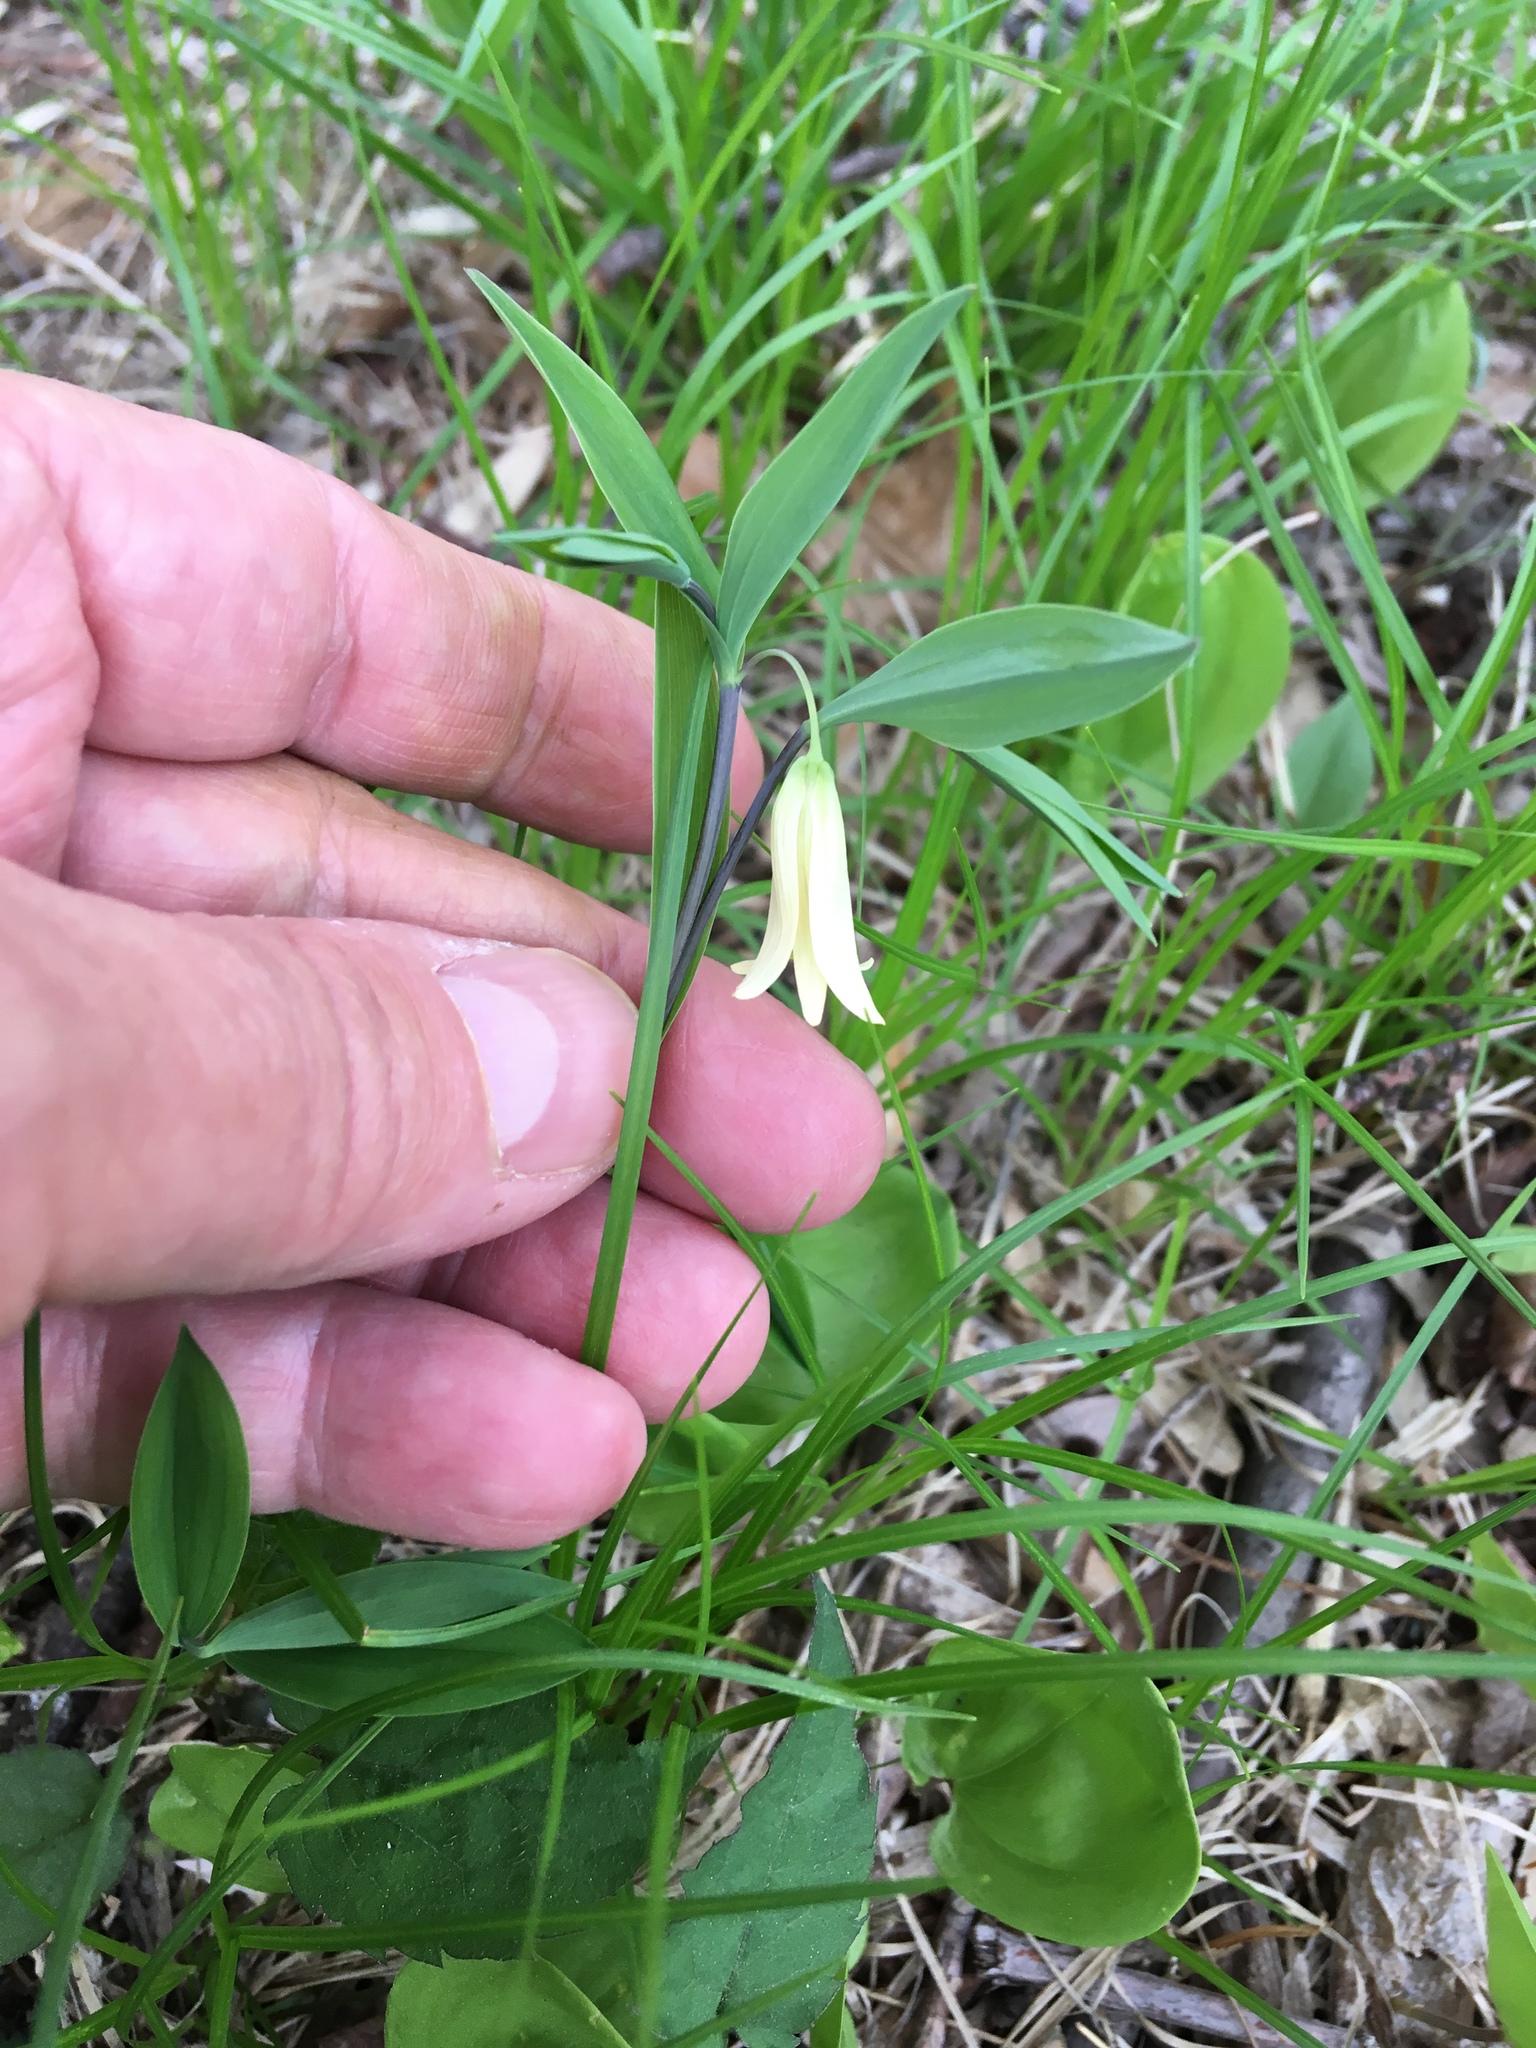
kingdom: Plantae
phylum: Tracheophyta
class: Liliopsida
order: Liliales
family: Colchicaceae
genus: Uvularia
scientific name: Uvularia sessilifolia
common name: Straw-lily
